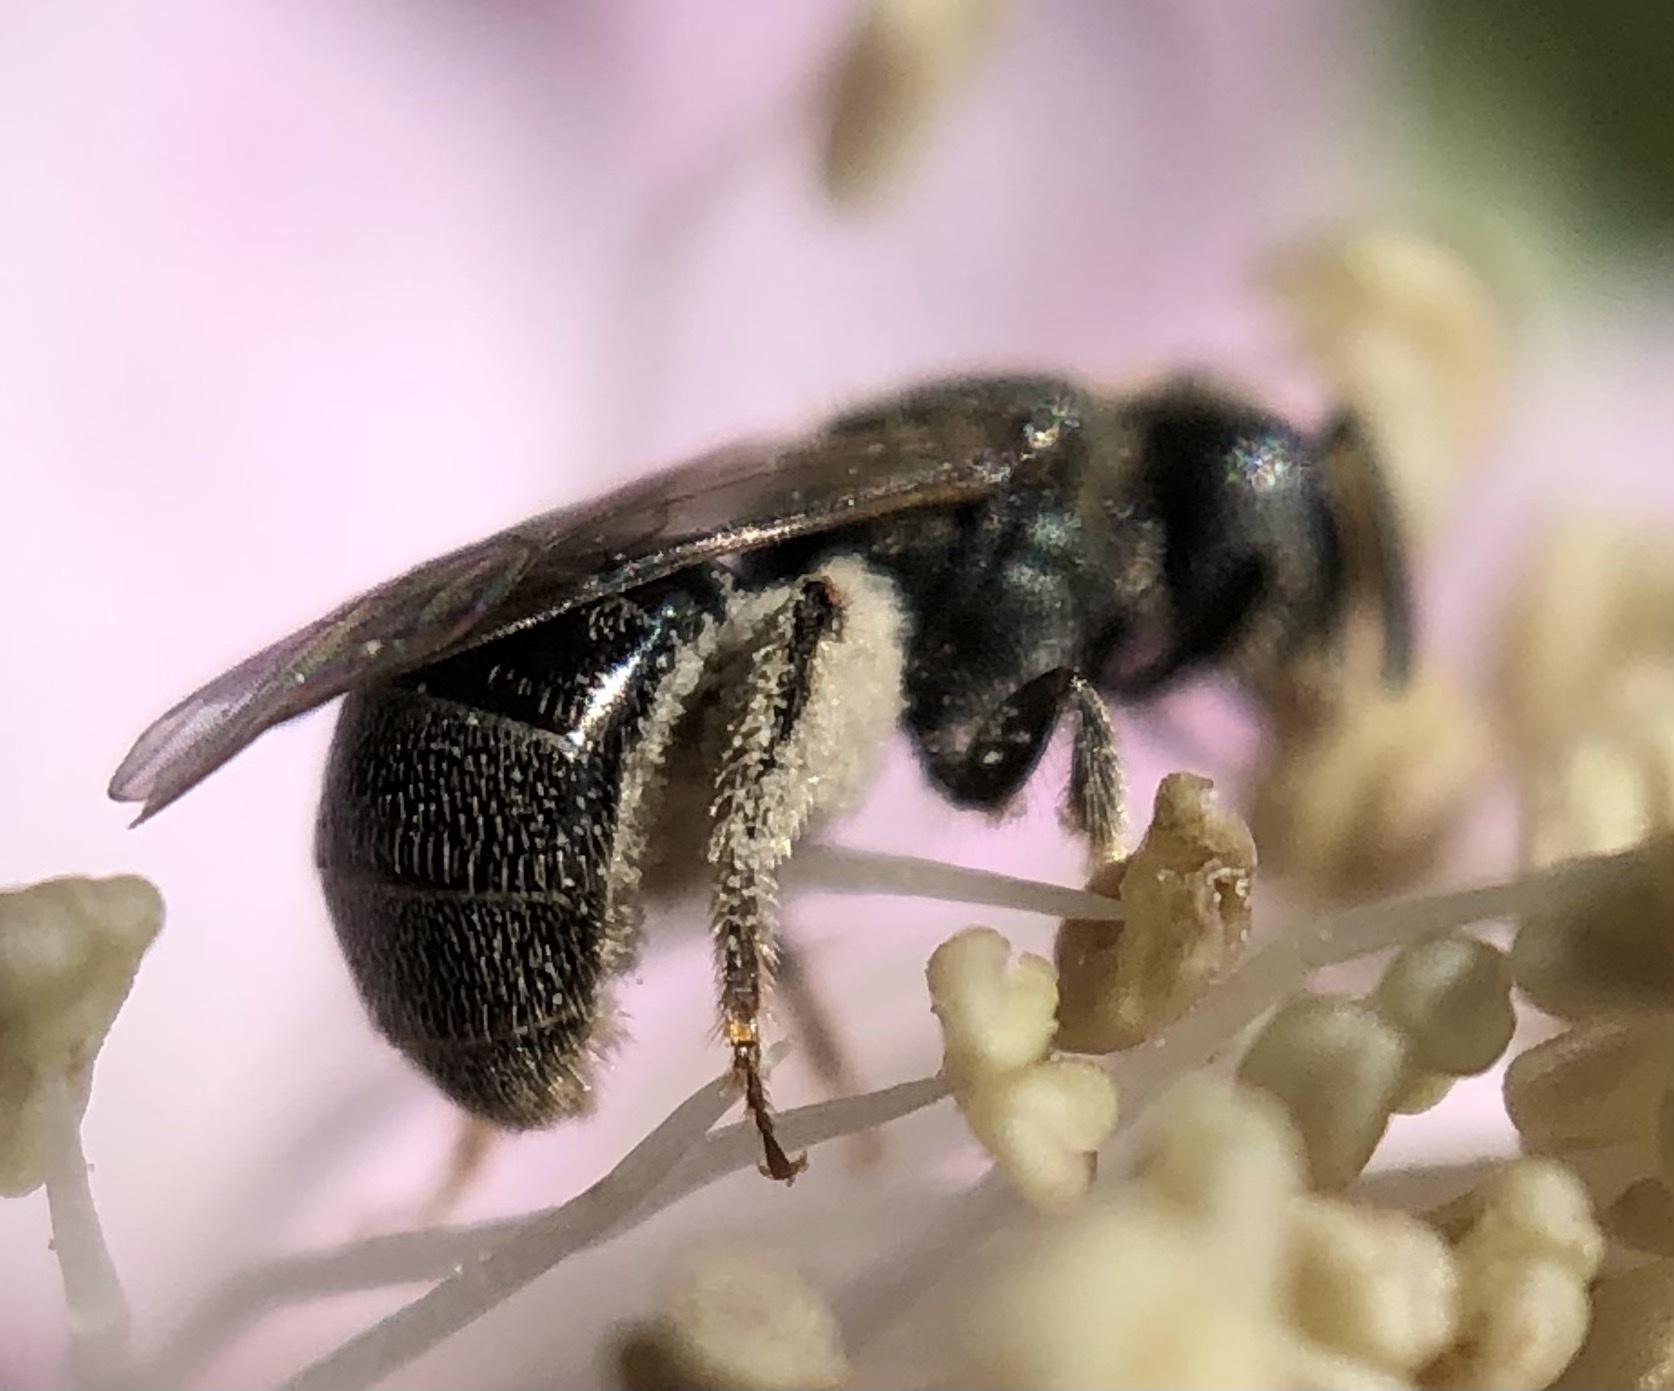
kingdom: Animalia
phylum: Arthropoda
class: Insecta
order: Hymenoptera
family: Halictidae
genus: Lasioglossum
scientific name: Lasioglossum imitatum
